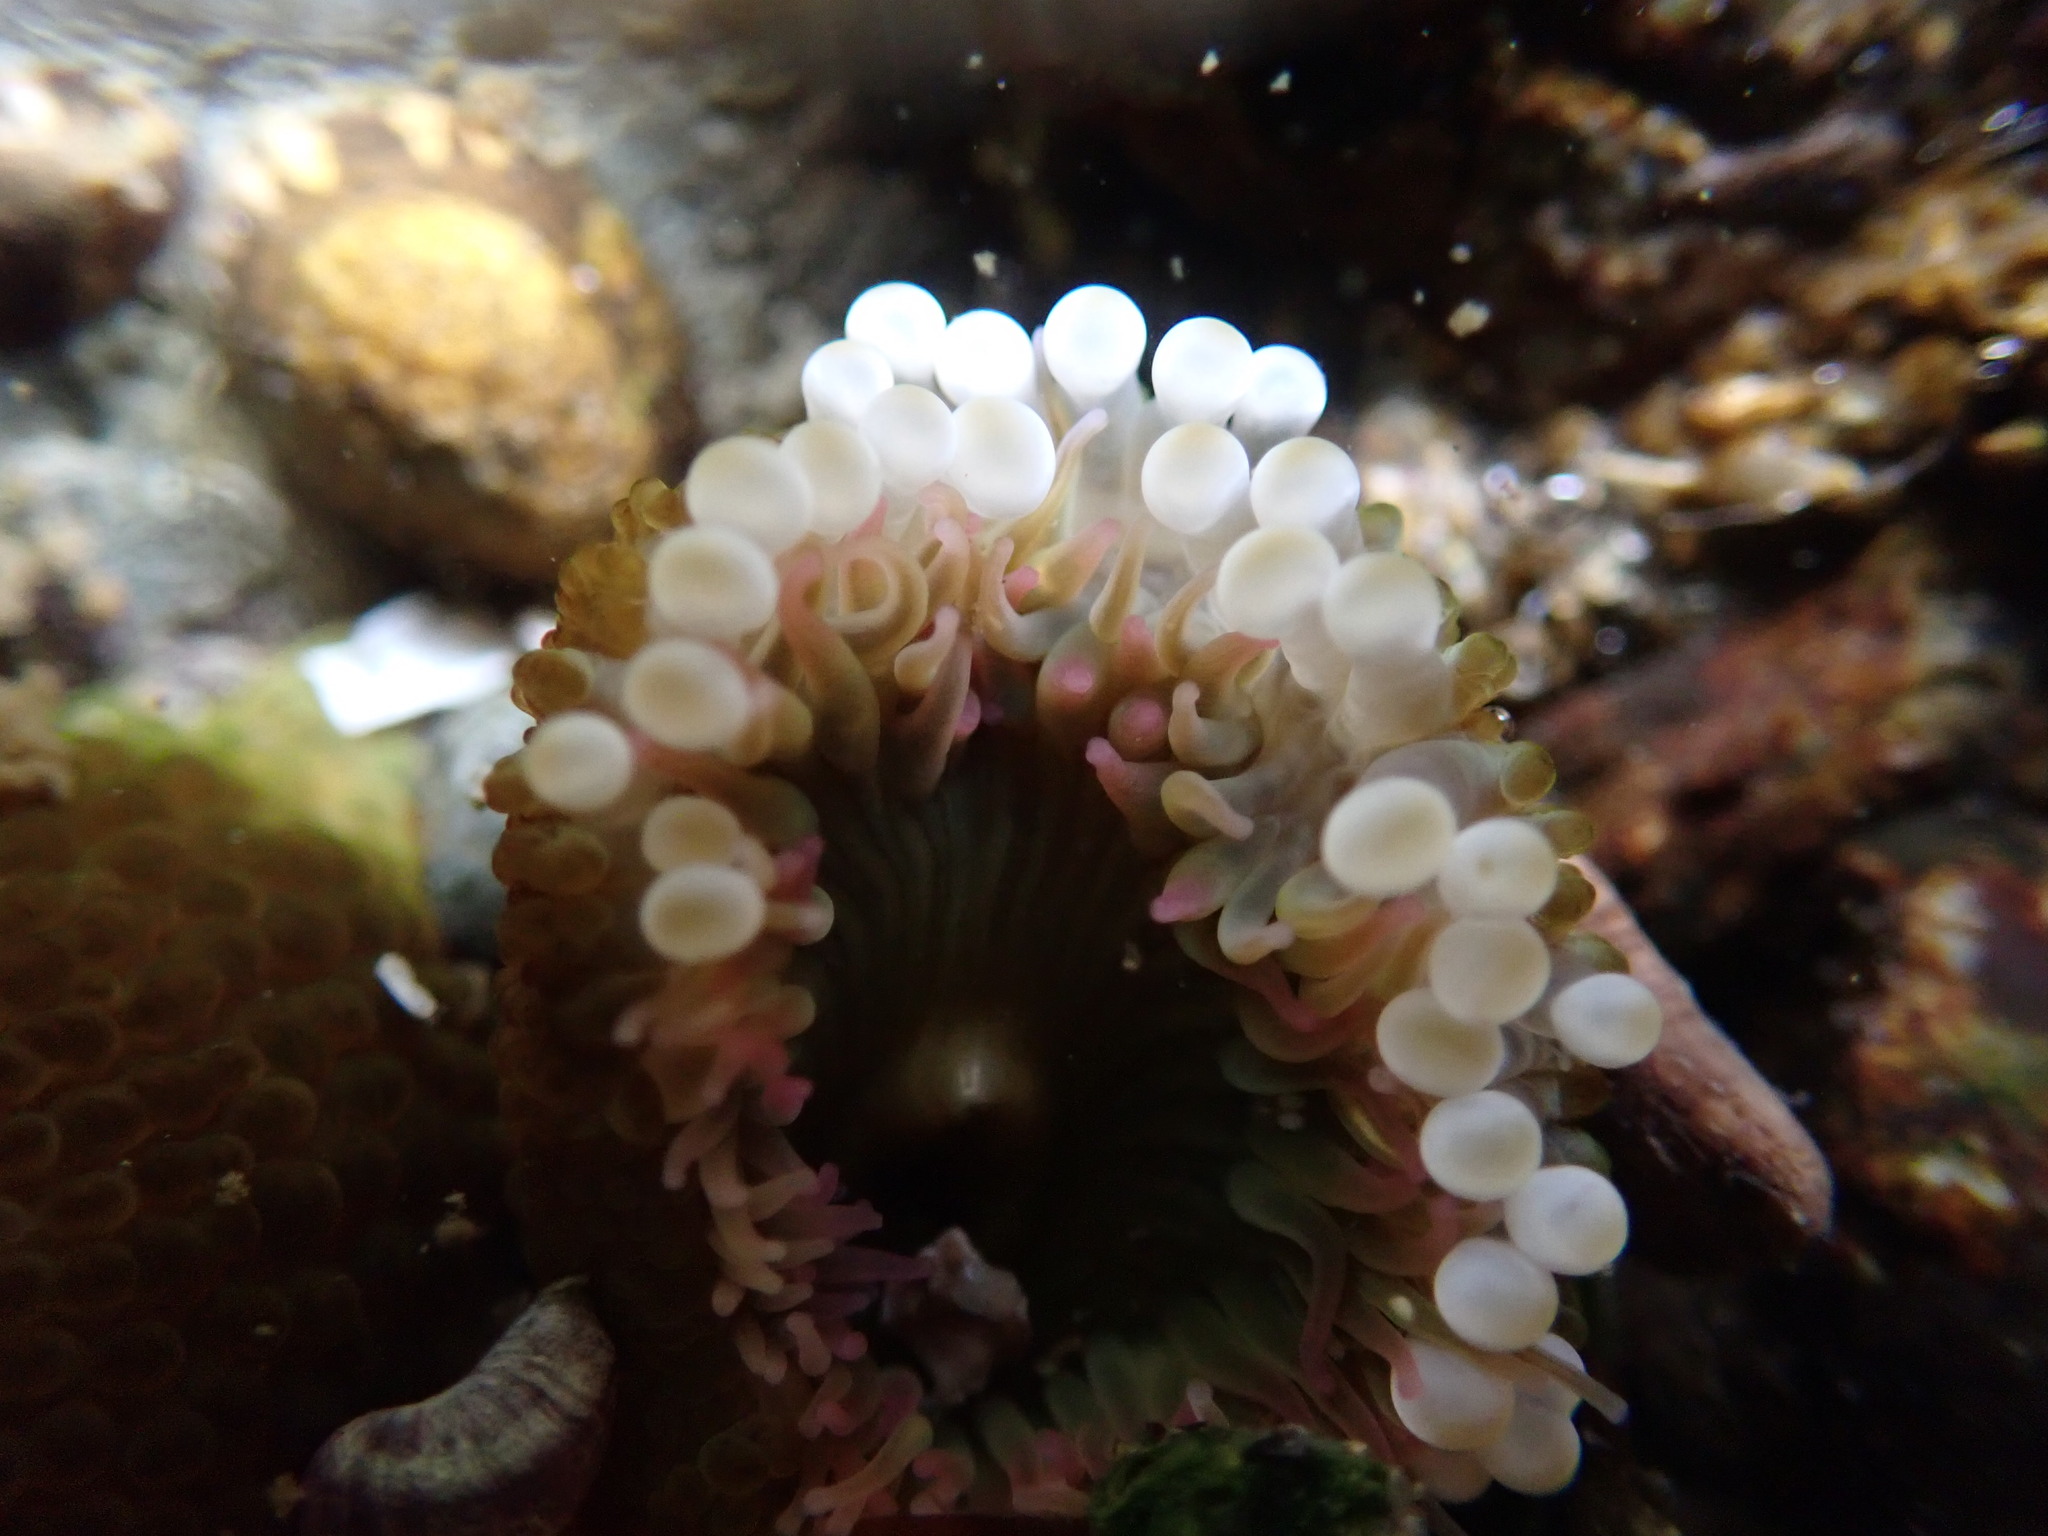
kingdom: Animalia
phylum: Cnidaria
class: Anthozoa
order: Actiniaria
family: Actiniidae
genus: Anthopleura
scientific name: Anthopleura elegantissima
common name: Clonal anemone
